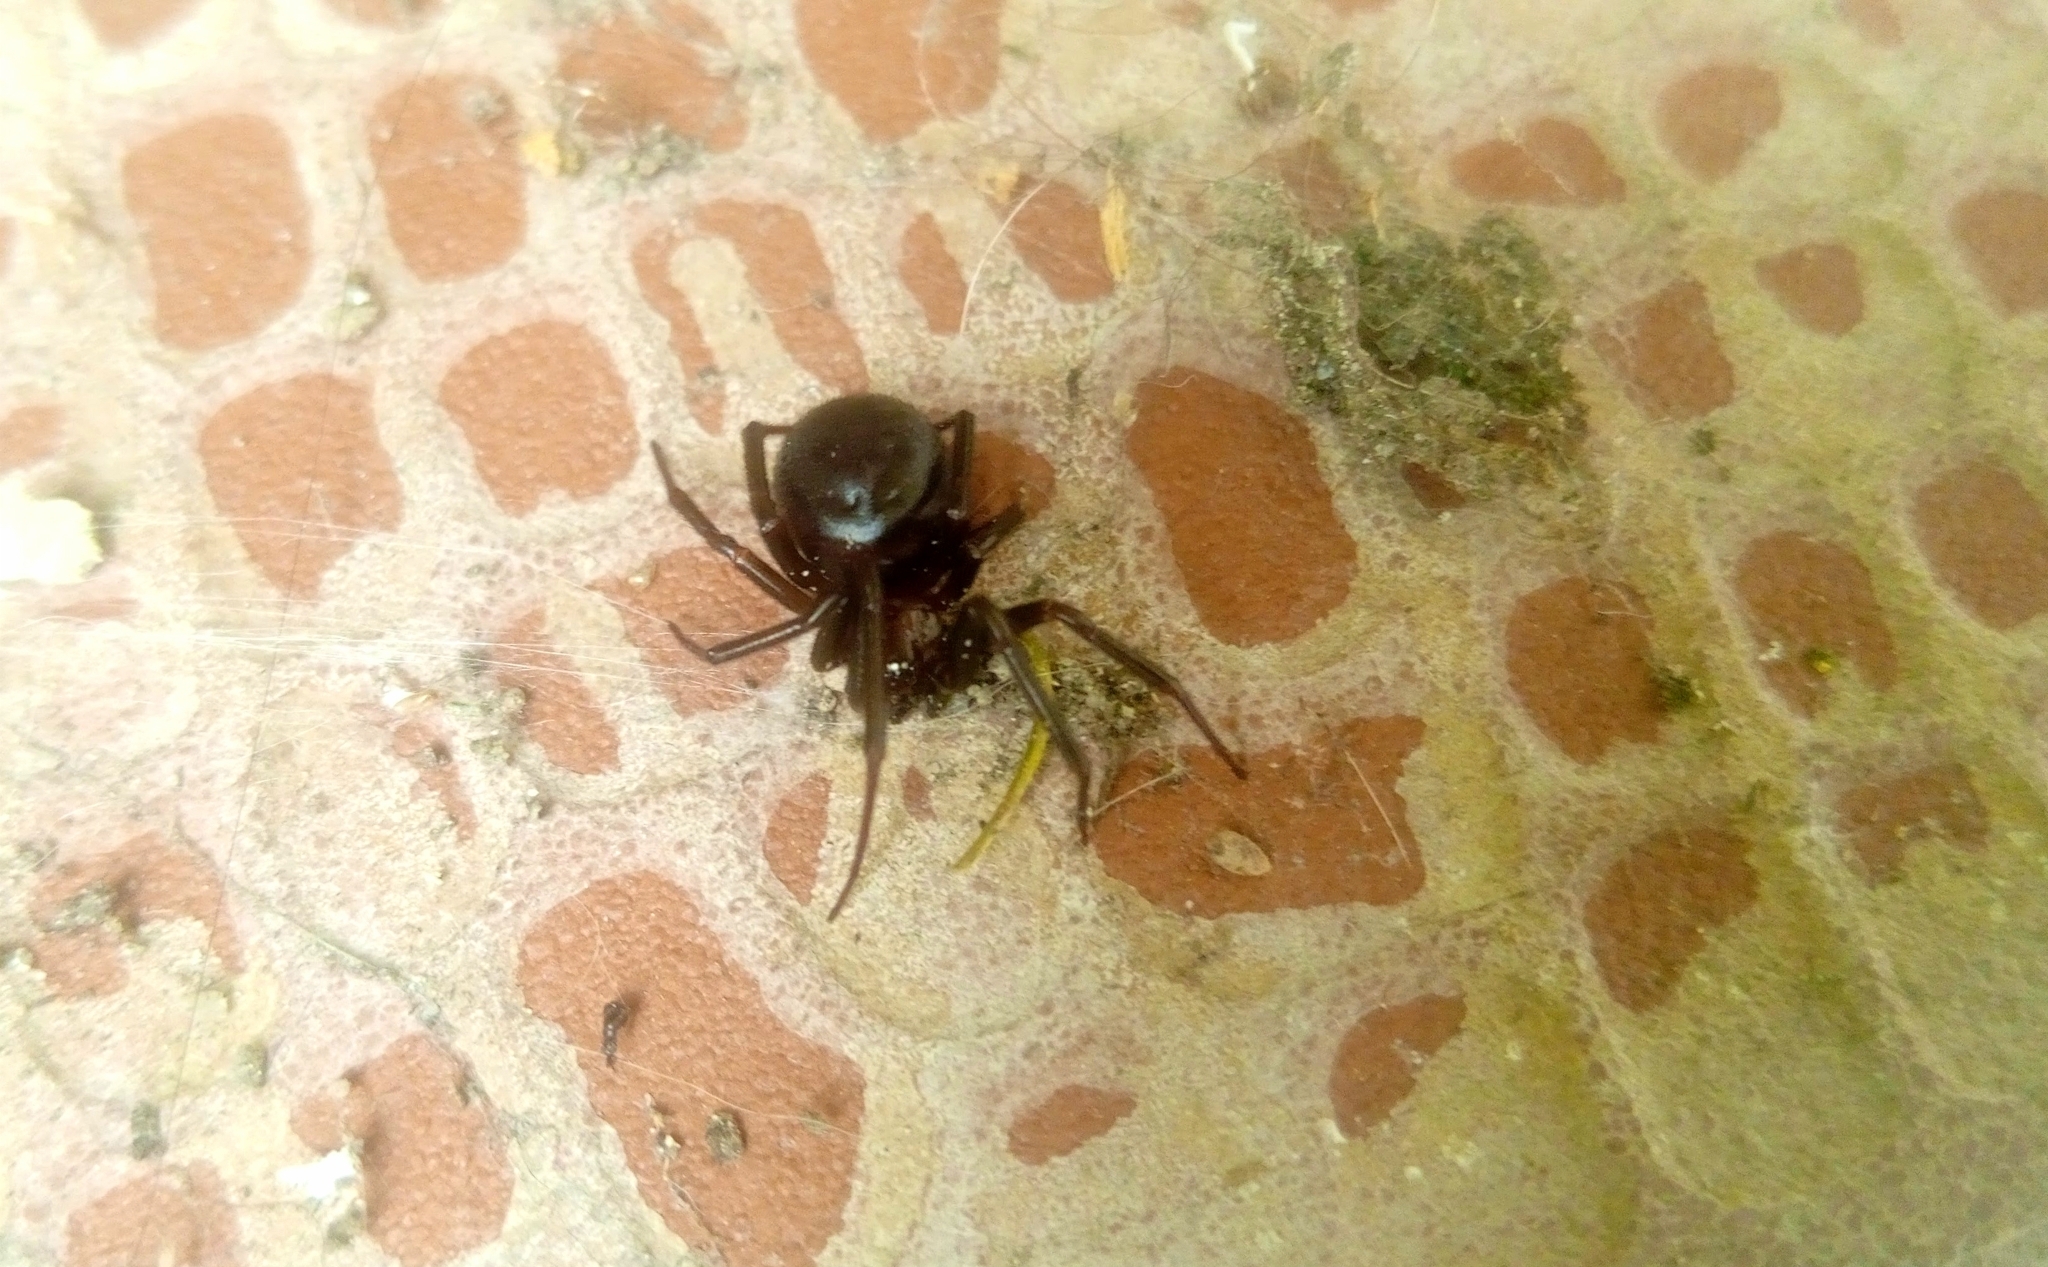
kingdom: Animalia
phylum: Arthropoda
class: Arachnida
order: Araneae
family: Theridiidae
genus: Steatoda
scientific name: Steatoda grossa
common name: False black widow
